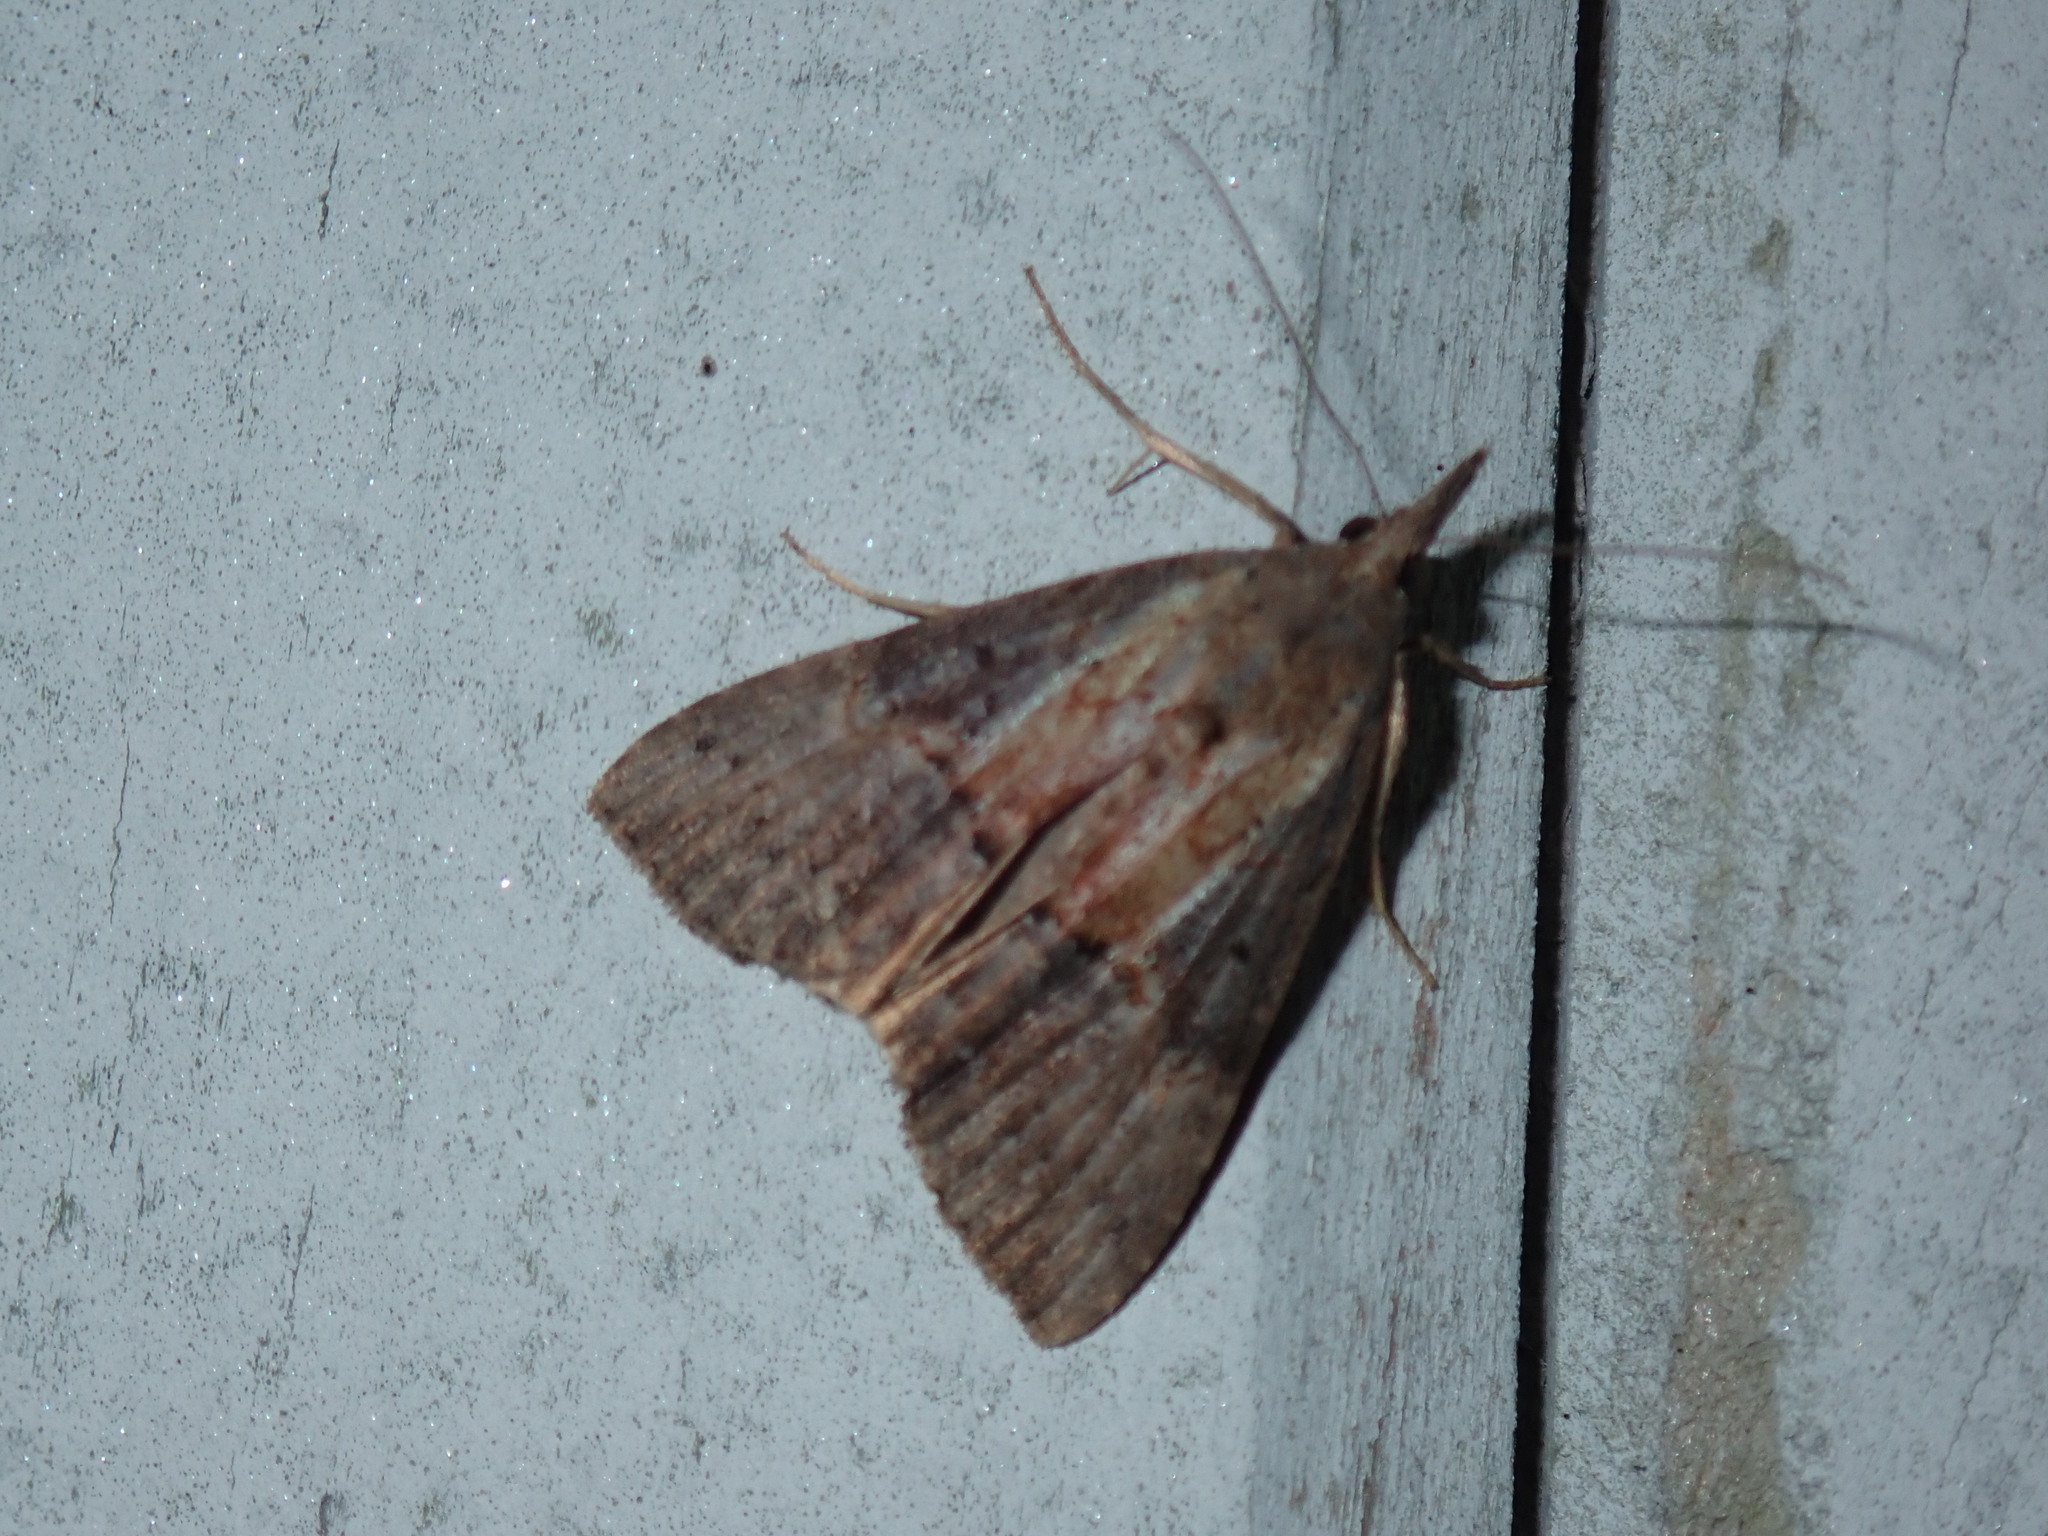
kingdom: Animalia
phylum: Arthropoda
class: Insecta
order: Lepidoptera
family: Erebidae
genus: Hypena
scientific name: Hypena scabra
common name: Green cloverworm
